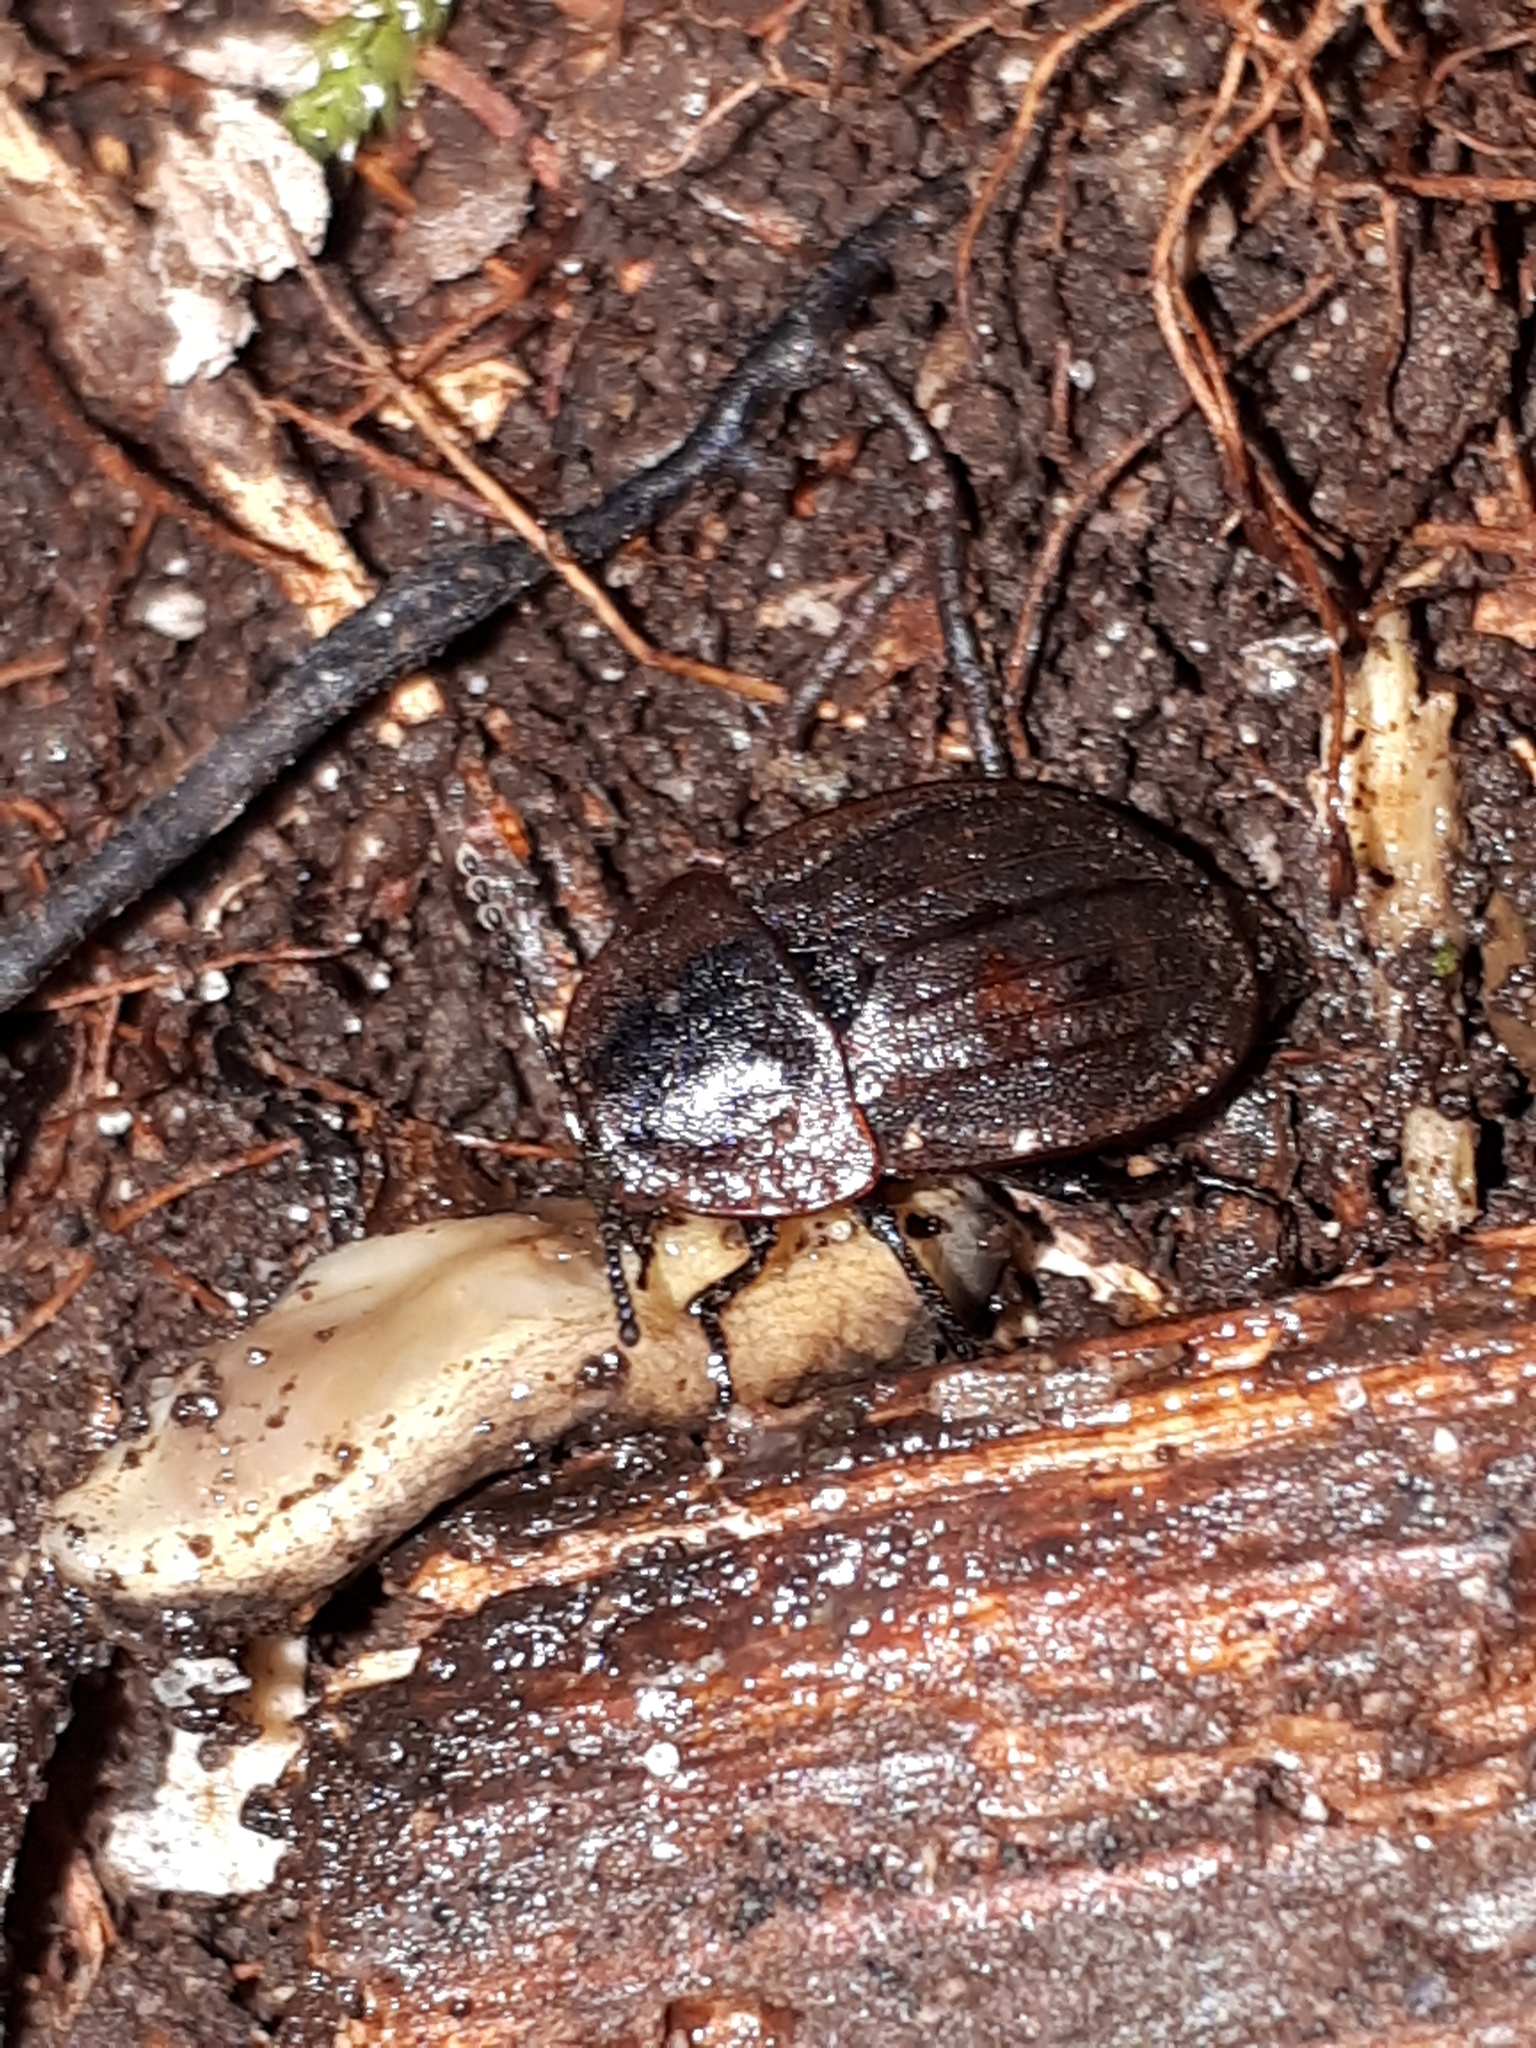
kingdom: Animalia
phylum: Arthropoda
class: Insecta
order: Coleoptera
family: Staphylinidae
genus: Silpha
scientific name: Silpha atrata
